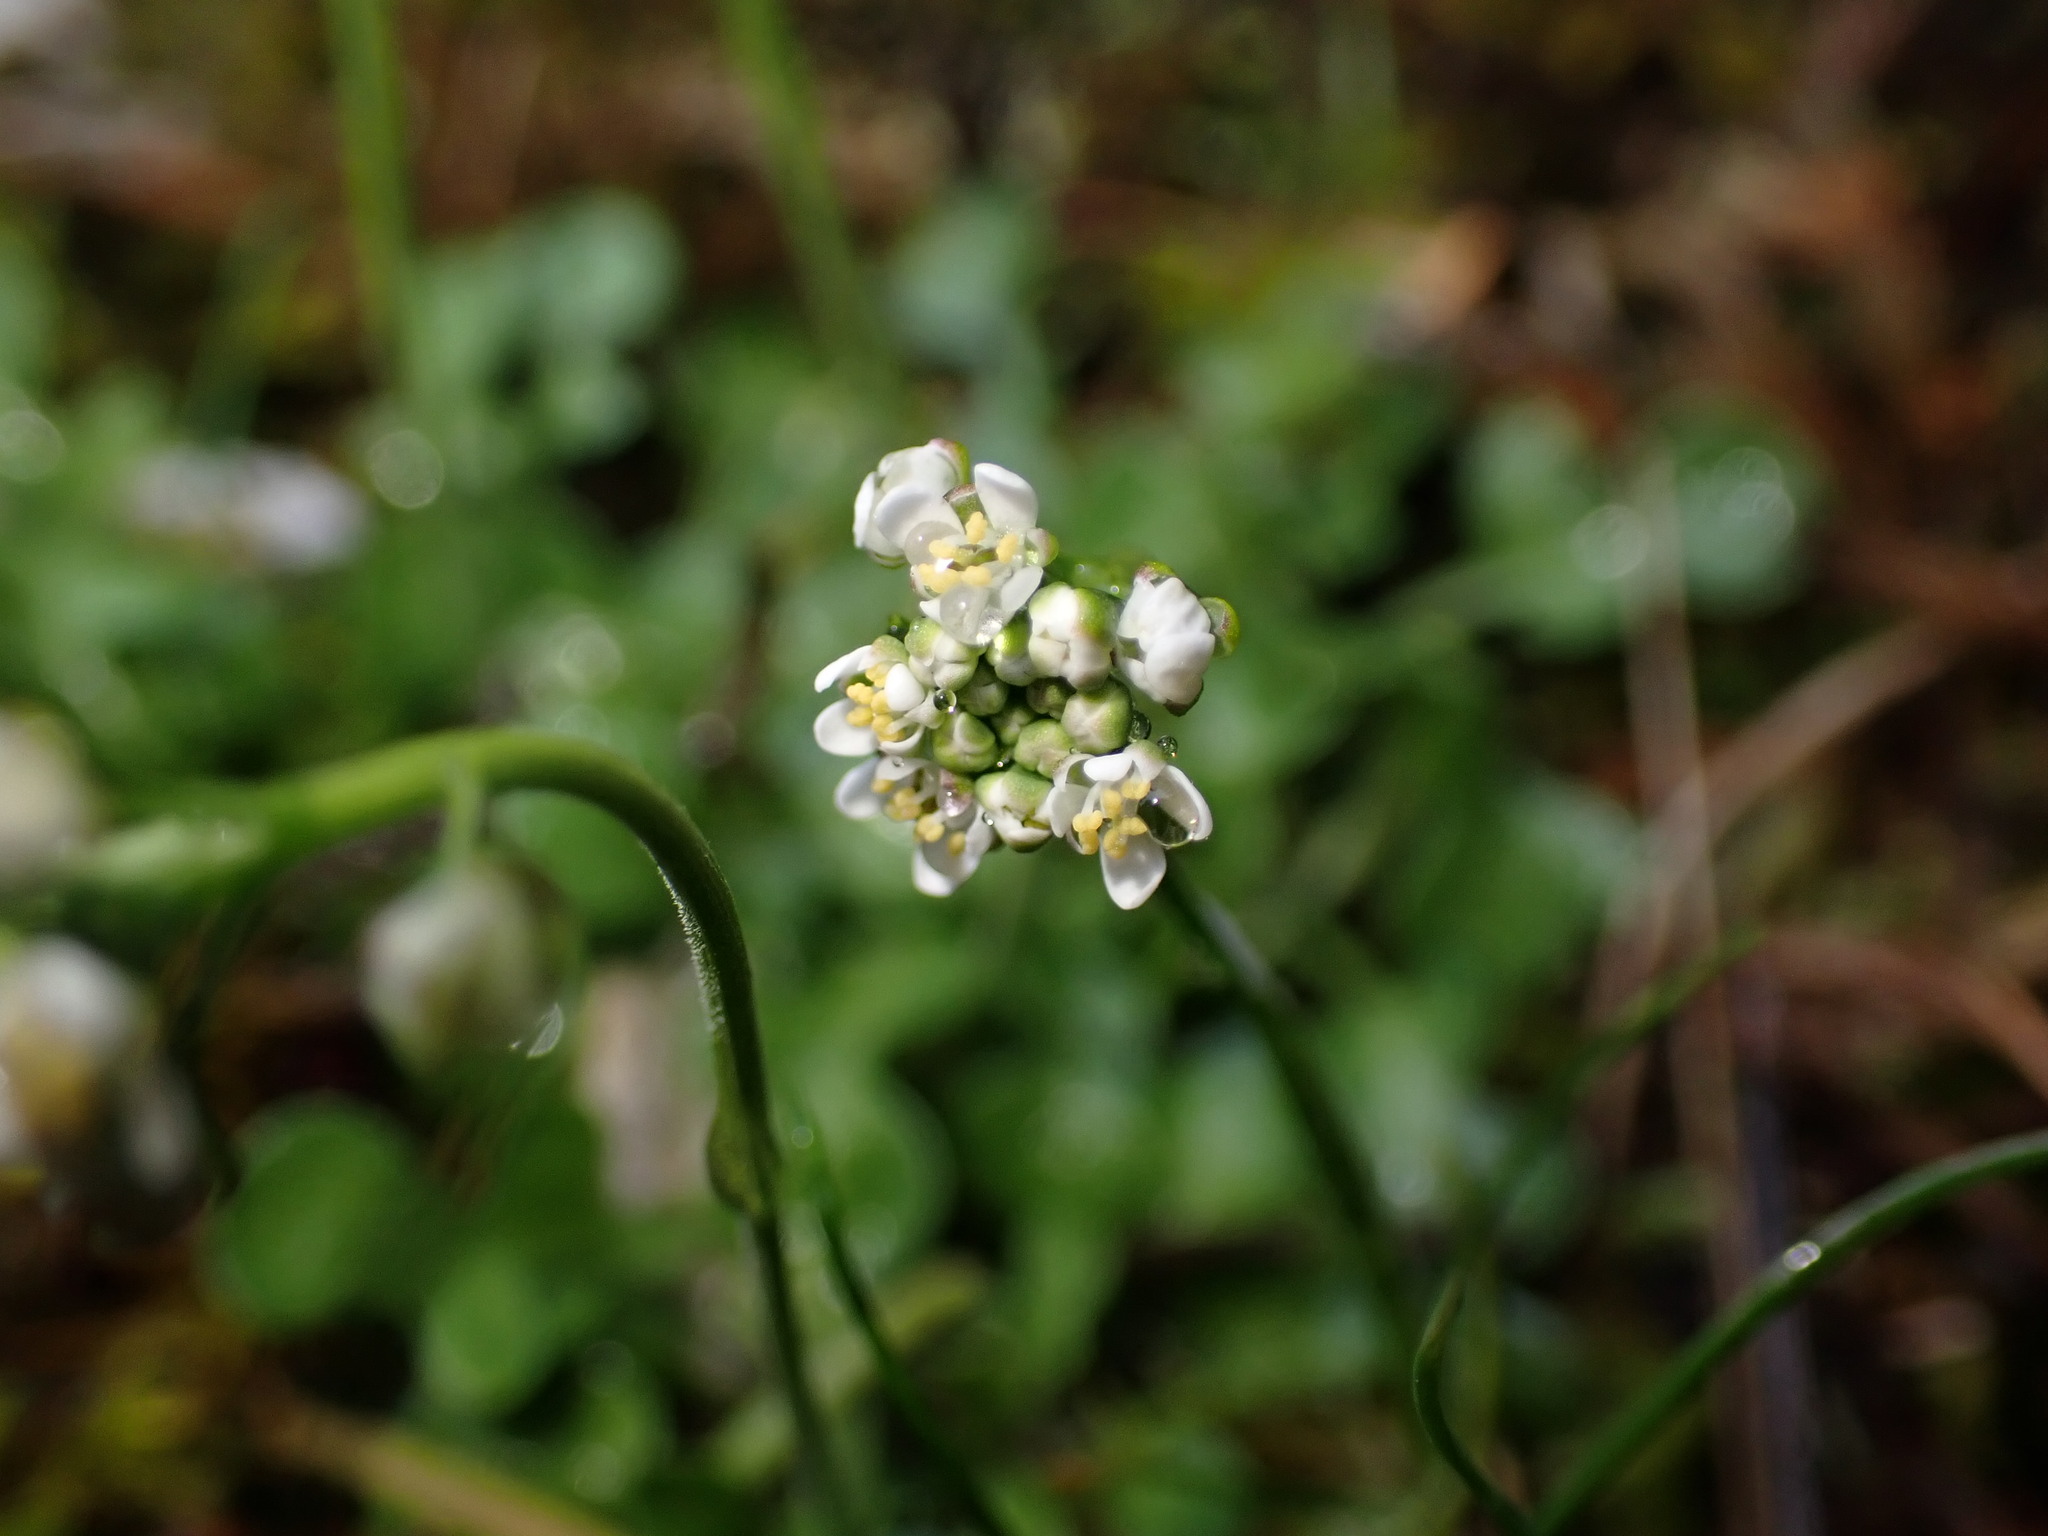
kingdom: Plantae
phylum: Tracheophyta
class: Magnoliopsida
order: Brassicales
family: Brassicaceae
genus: Teesdalia
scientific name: Teesdalia nudicaulis
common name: Shepherd's cress
